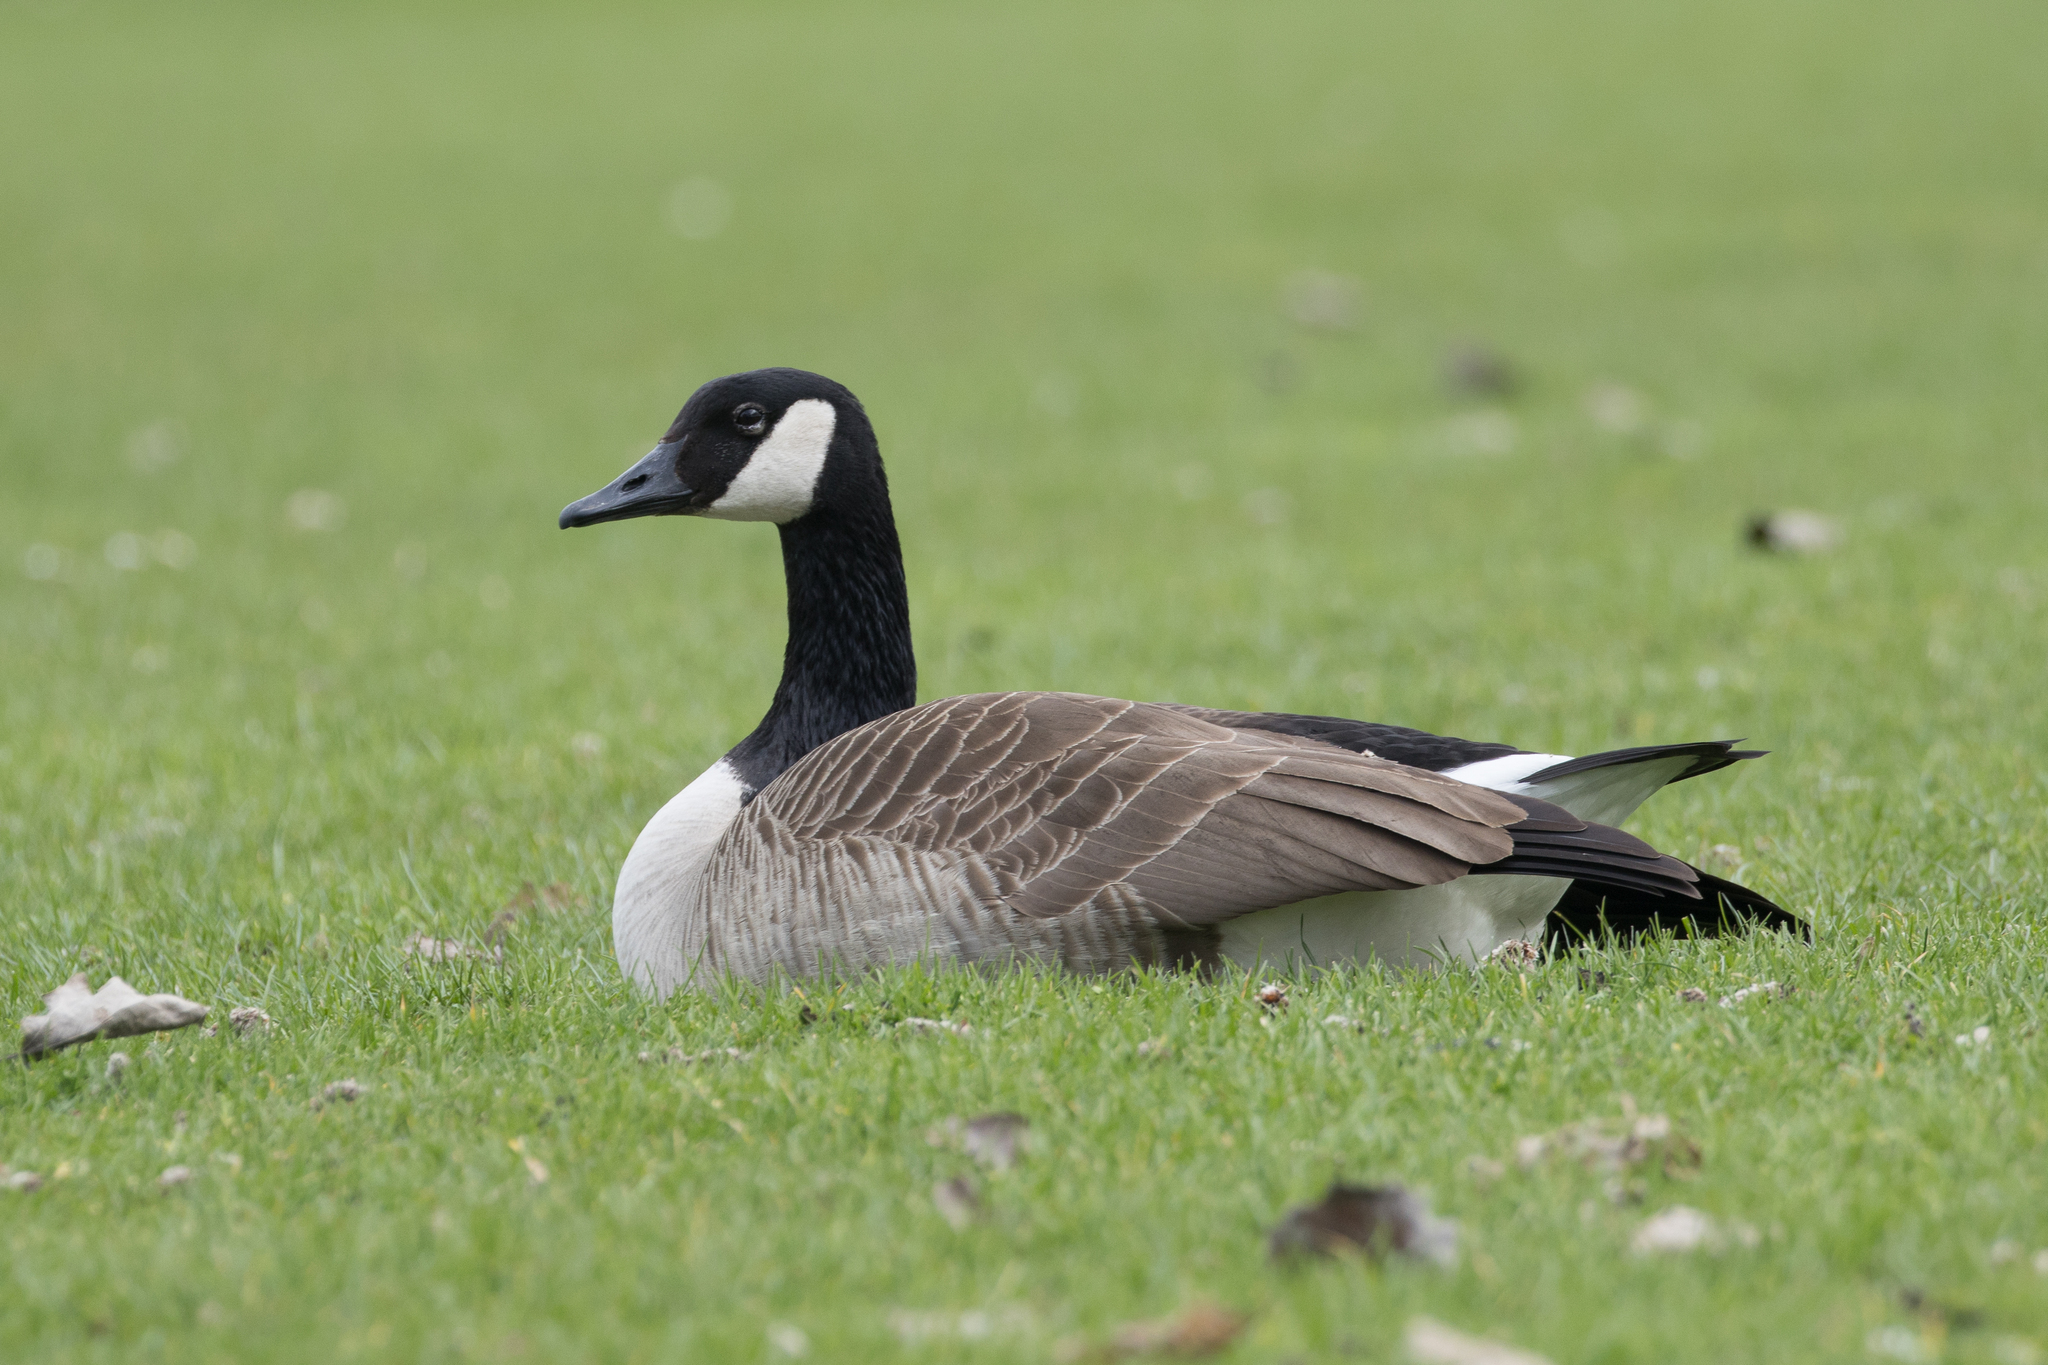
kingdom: Animalia
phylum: Chordata
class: Aves
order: Anseriformes
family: Anatidae
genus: Branta
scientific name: Branta canadensis
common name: Canada goose
